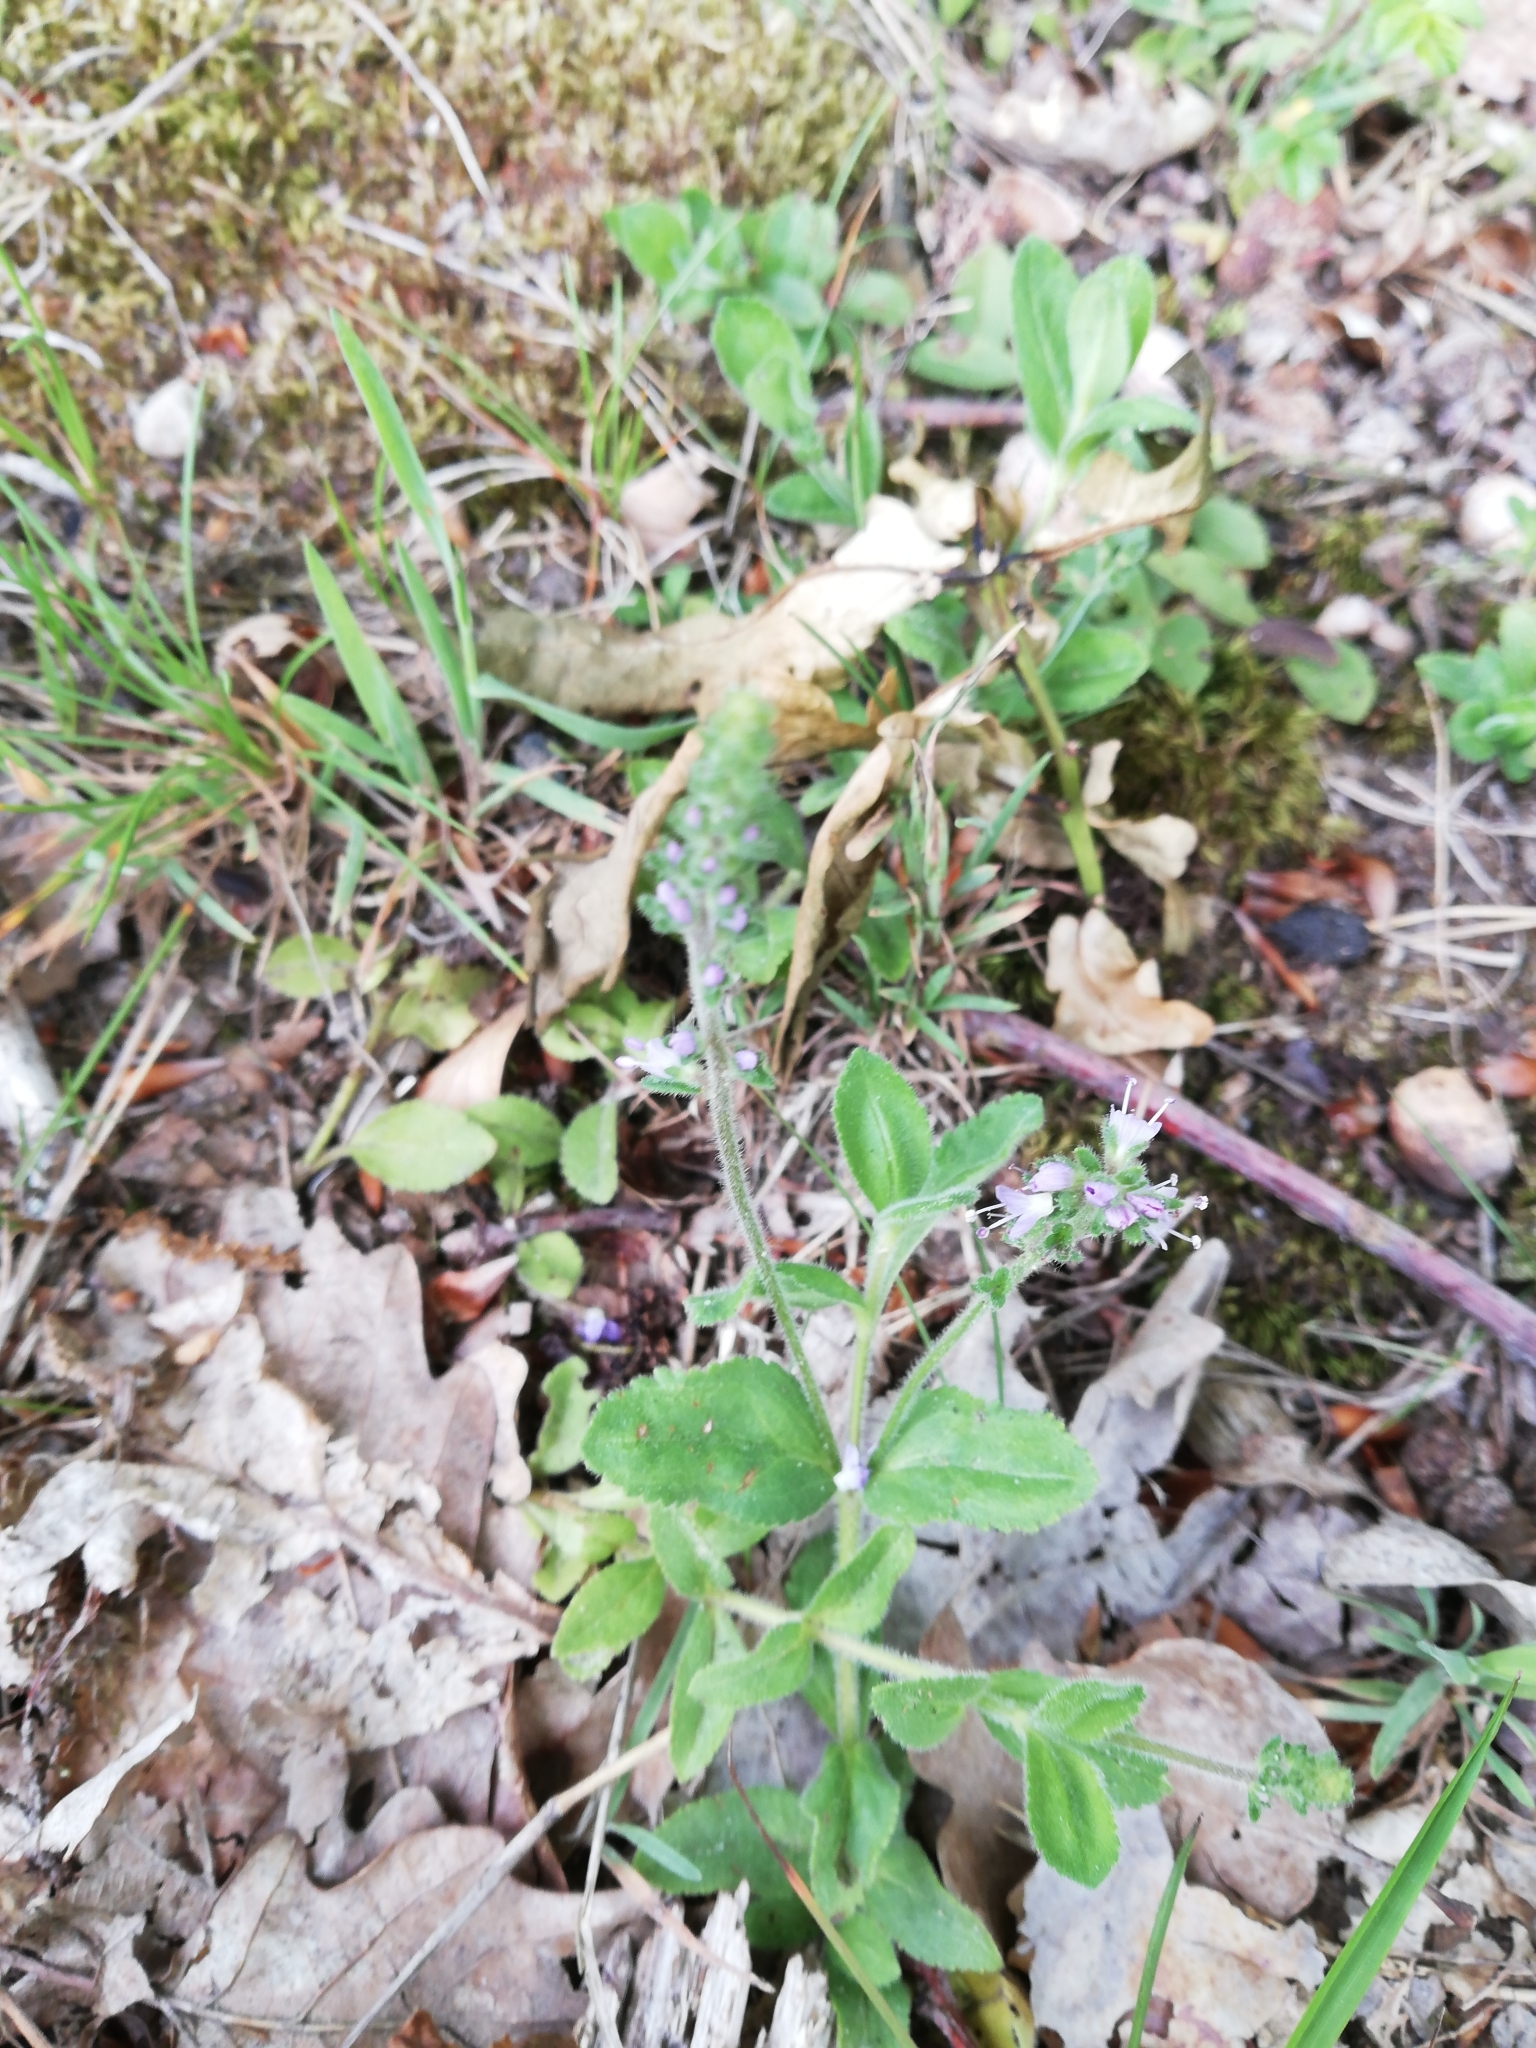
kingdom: Plantae
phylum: Tracheophyta
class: Magnoliopsida
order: Lamiales
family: Plantaginaceae
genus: Veronica
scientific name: Veronica officinalis
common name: Common speedwell
